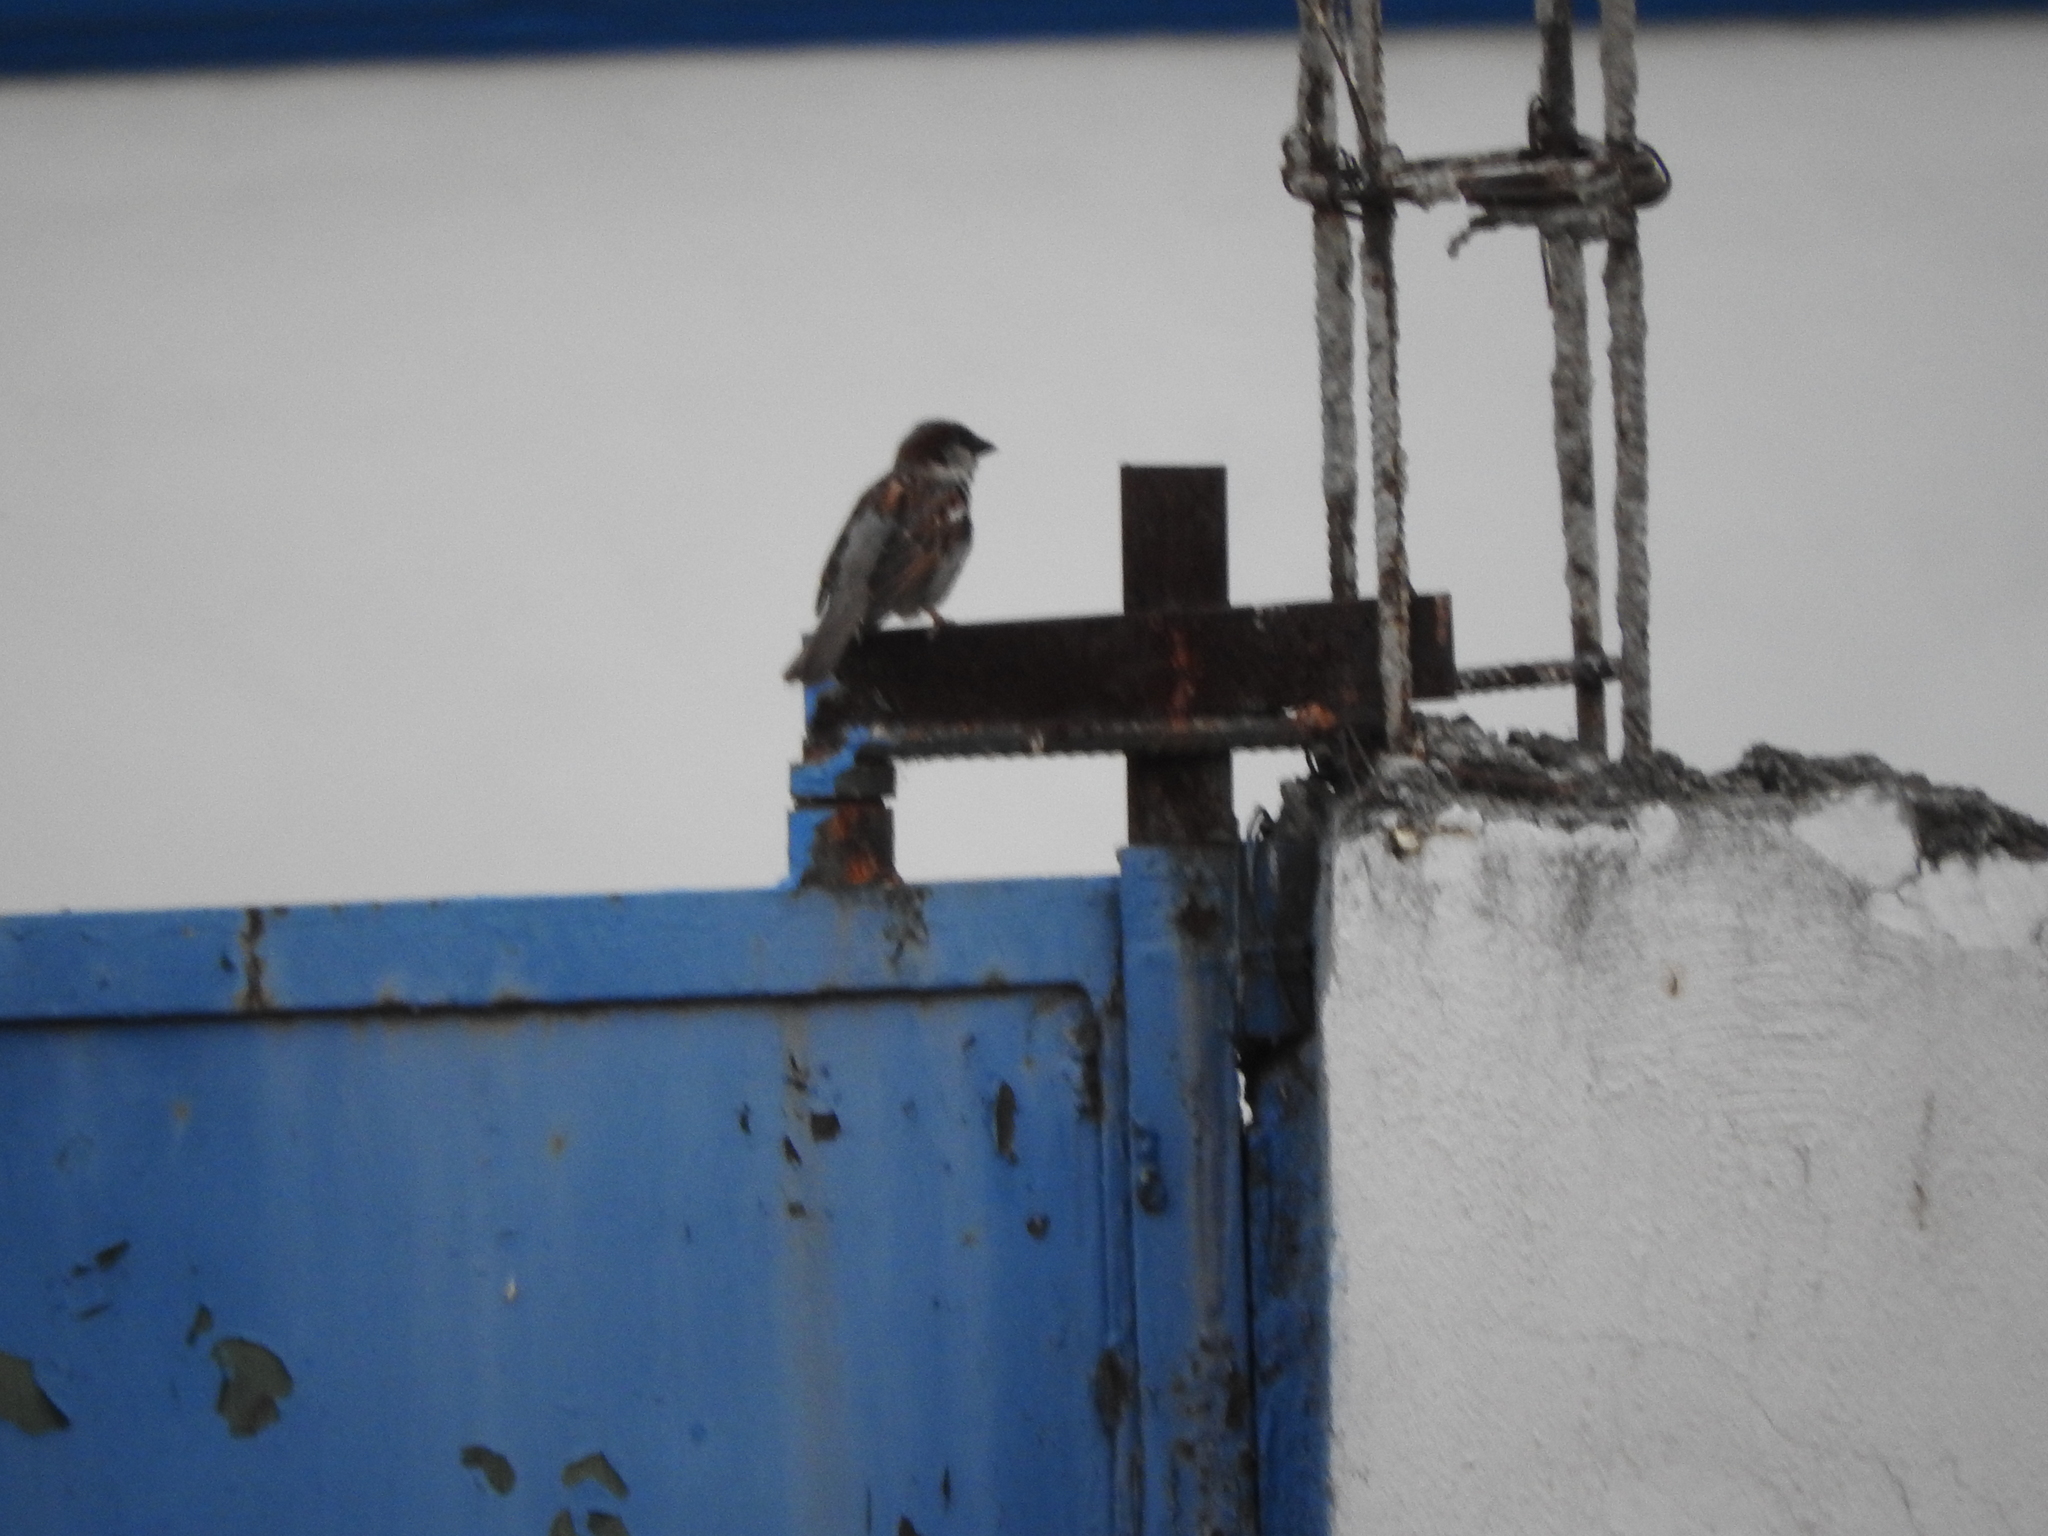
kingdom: Animalia
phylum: Chordata
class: Aves
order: Passeriformes
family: Passeridae
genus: Passer
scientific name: Passer domesticus
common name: House sparrow
